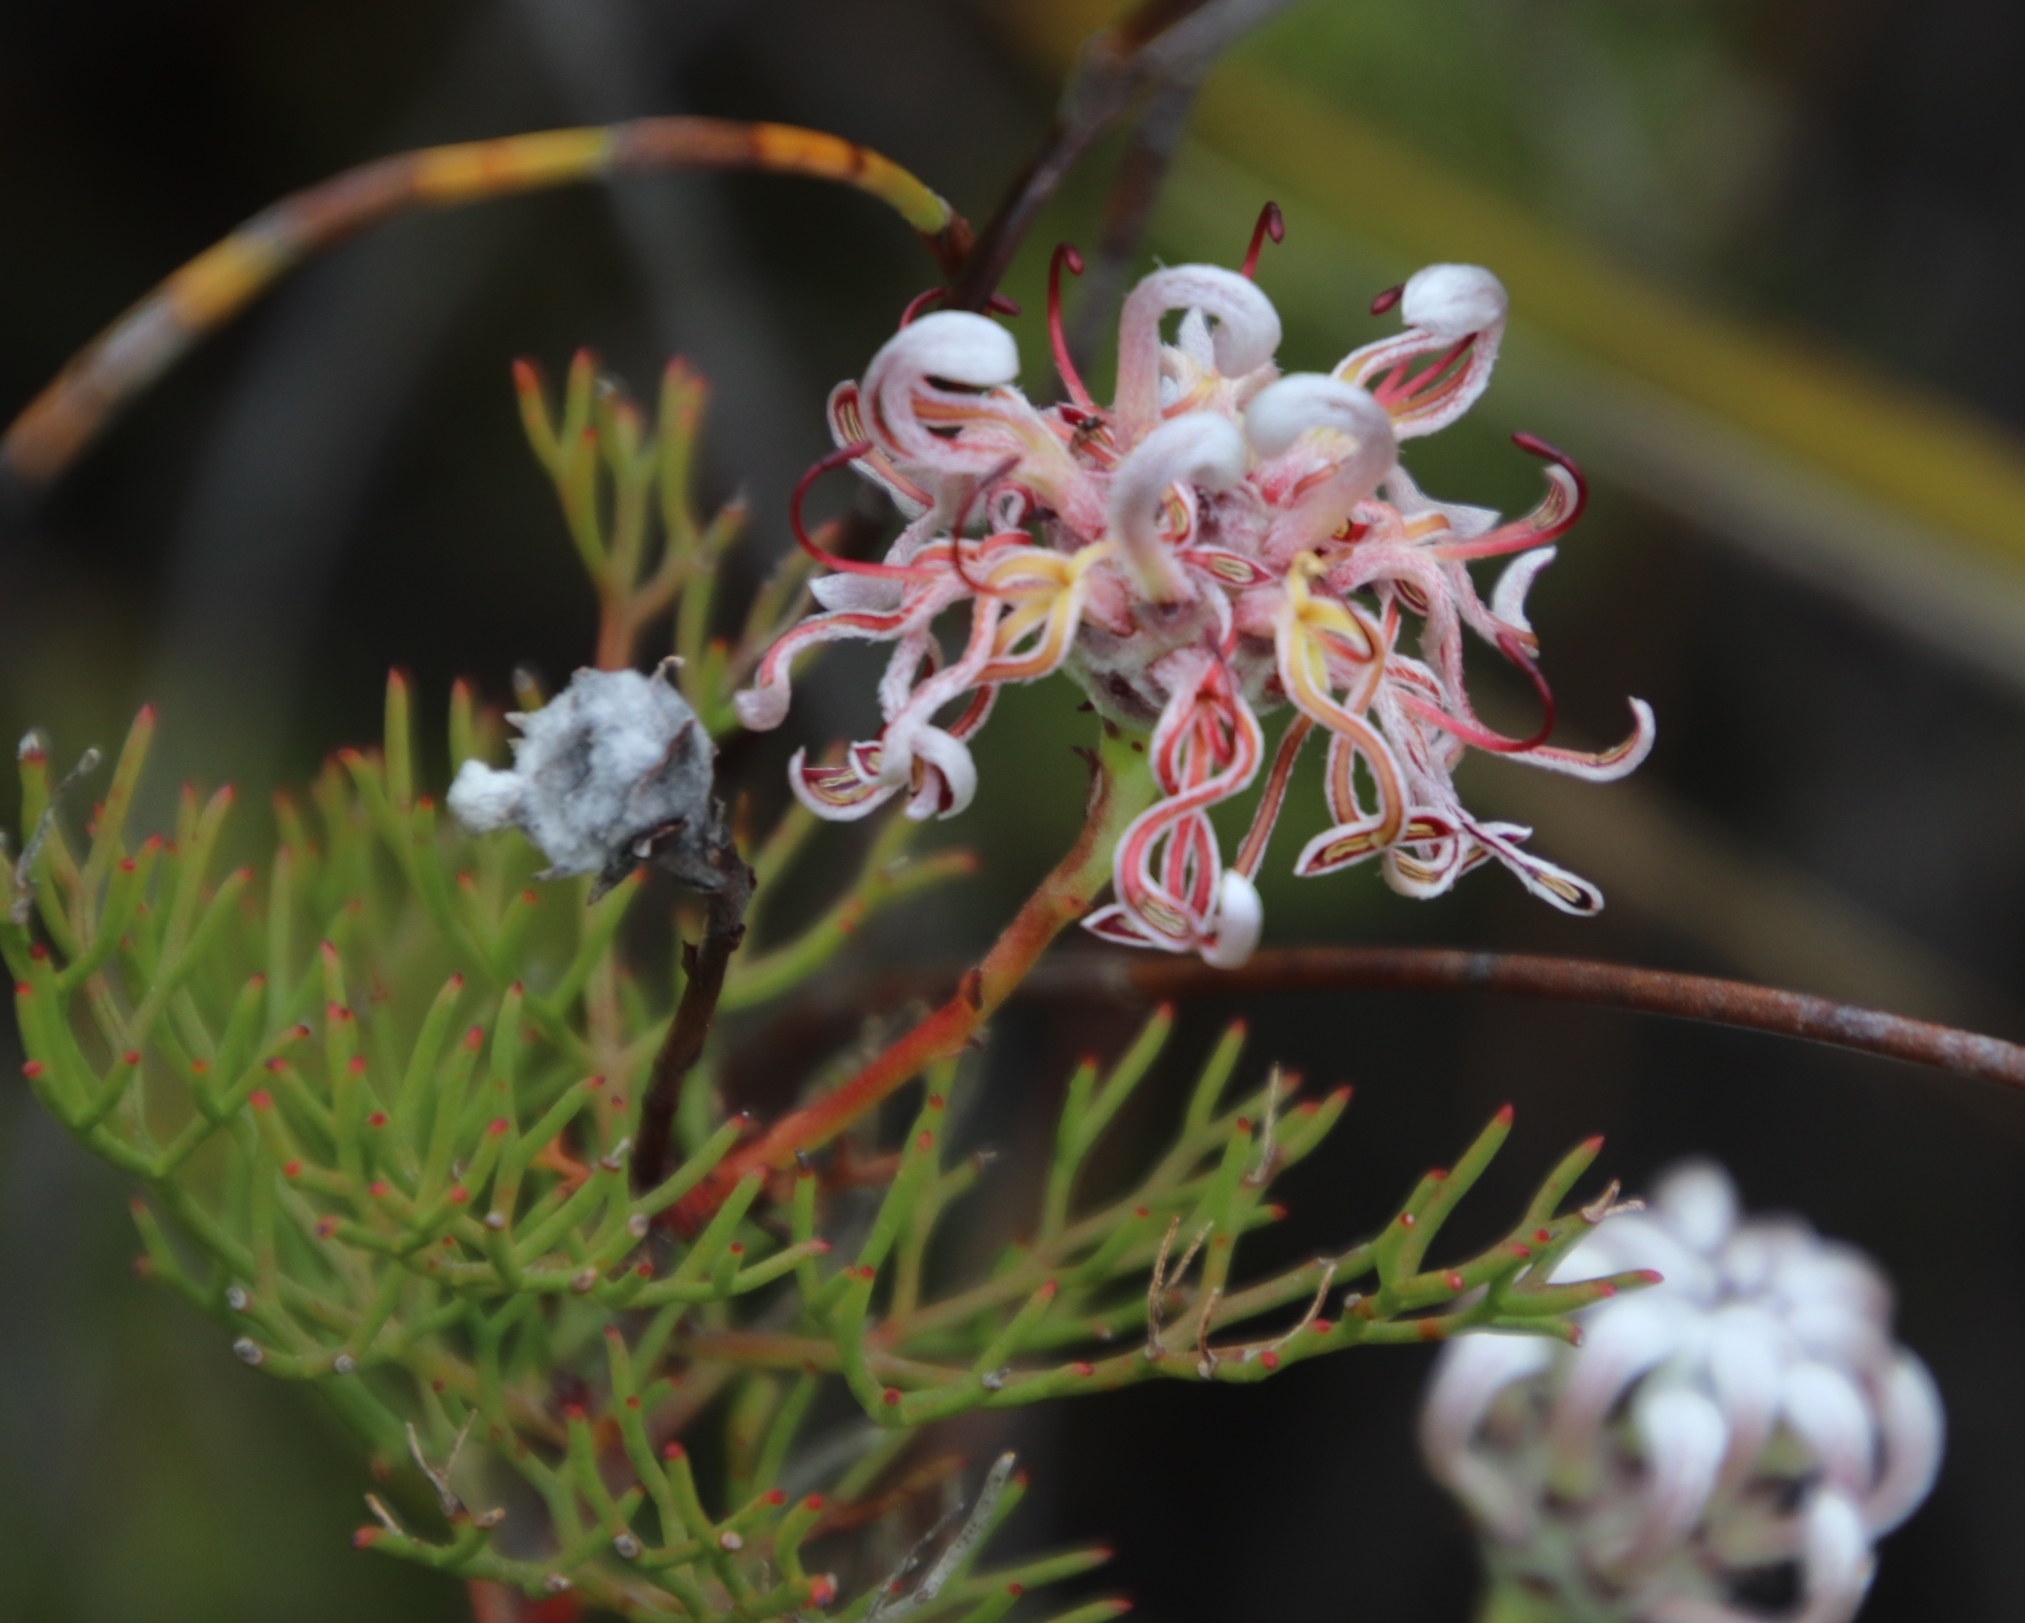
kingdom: Plantae
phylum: Tracheophyta
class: Magnoliopsida
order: Proteales
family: Proteaceae
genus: Serruria
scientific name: Serruria gremialis
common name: Riviersonderend spiderhead
